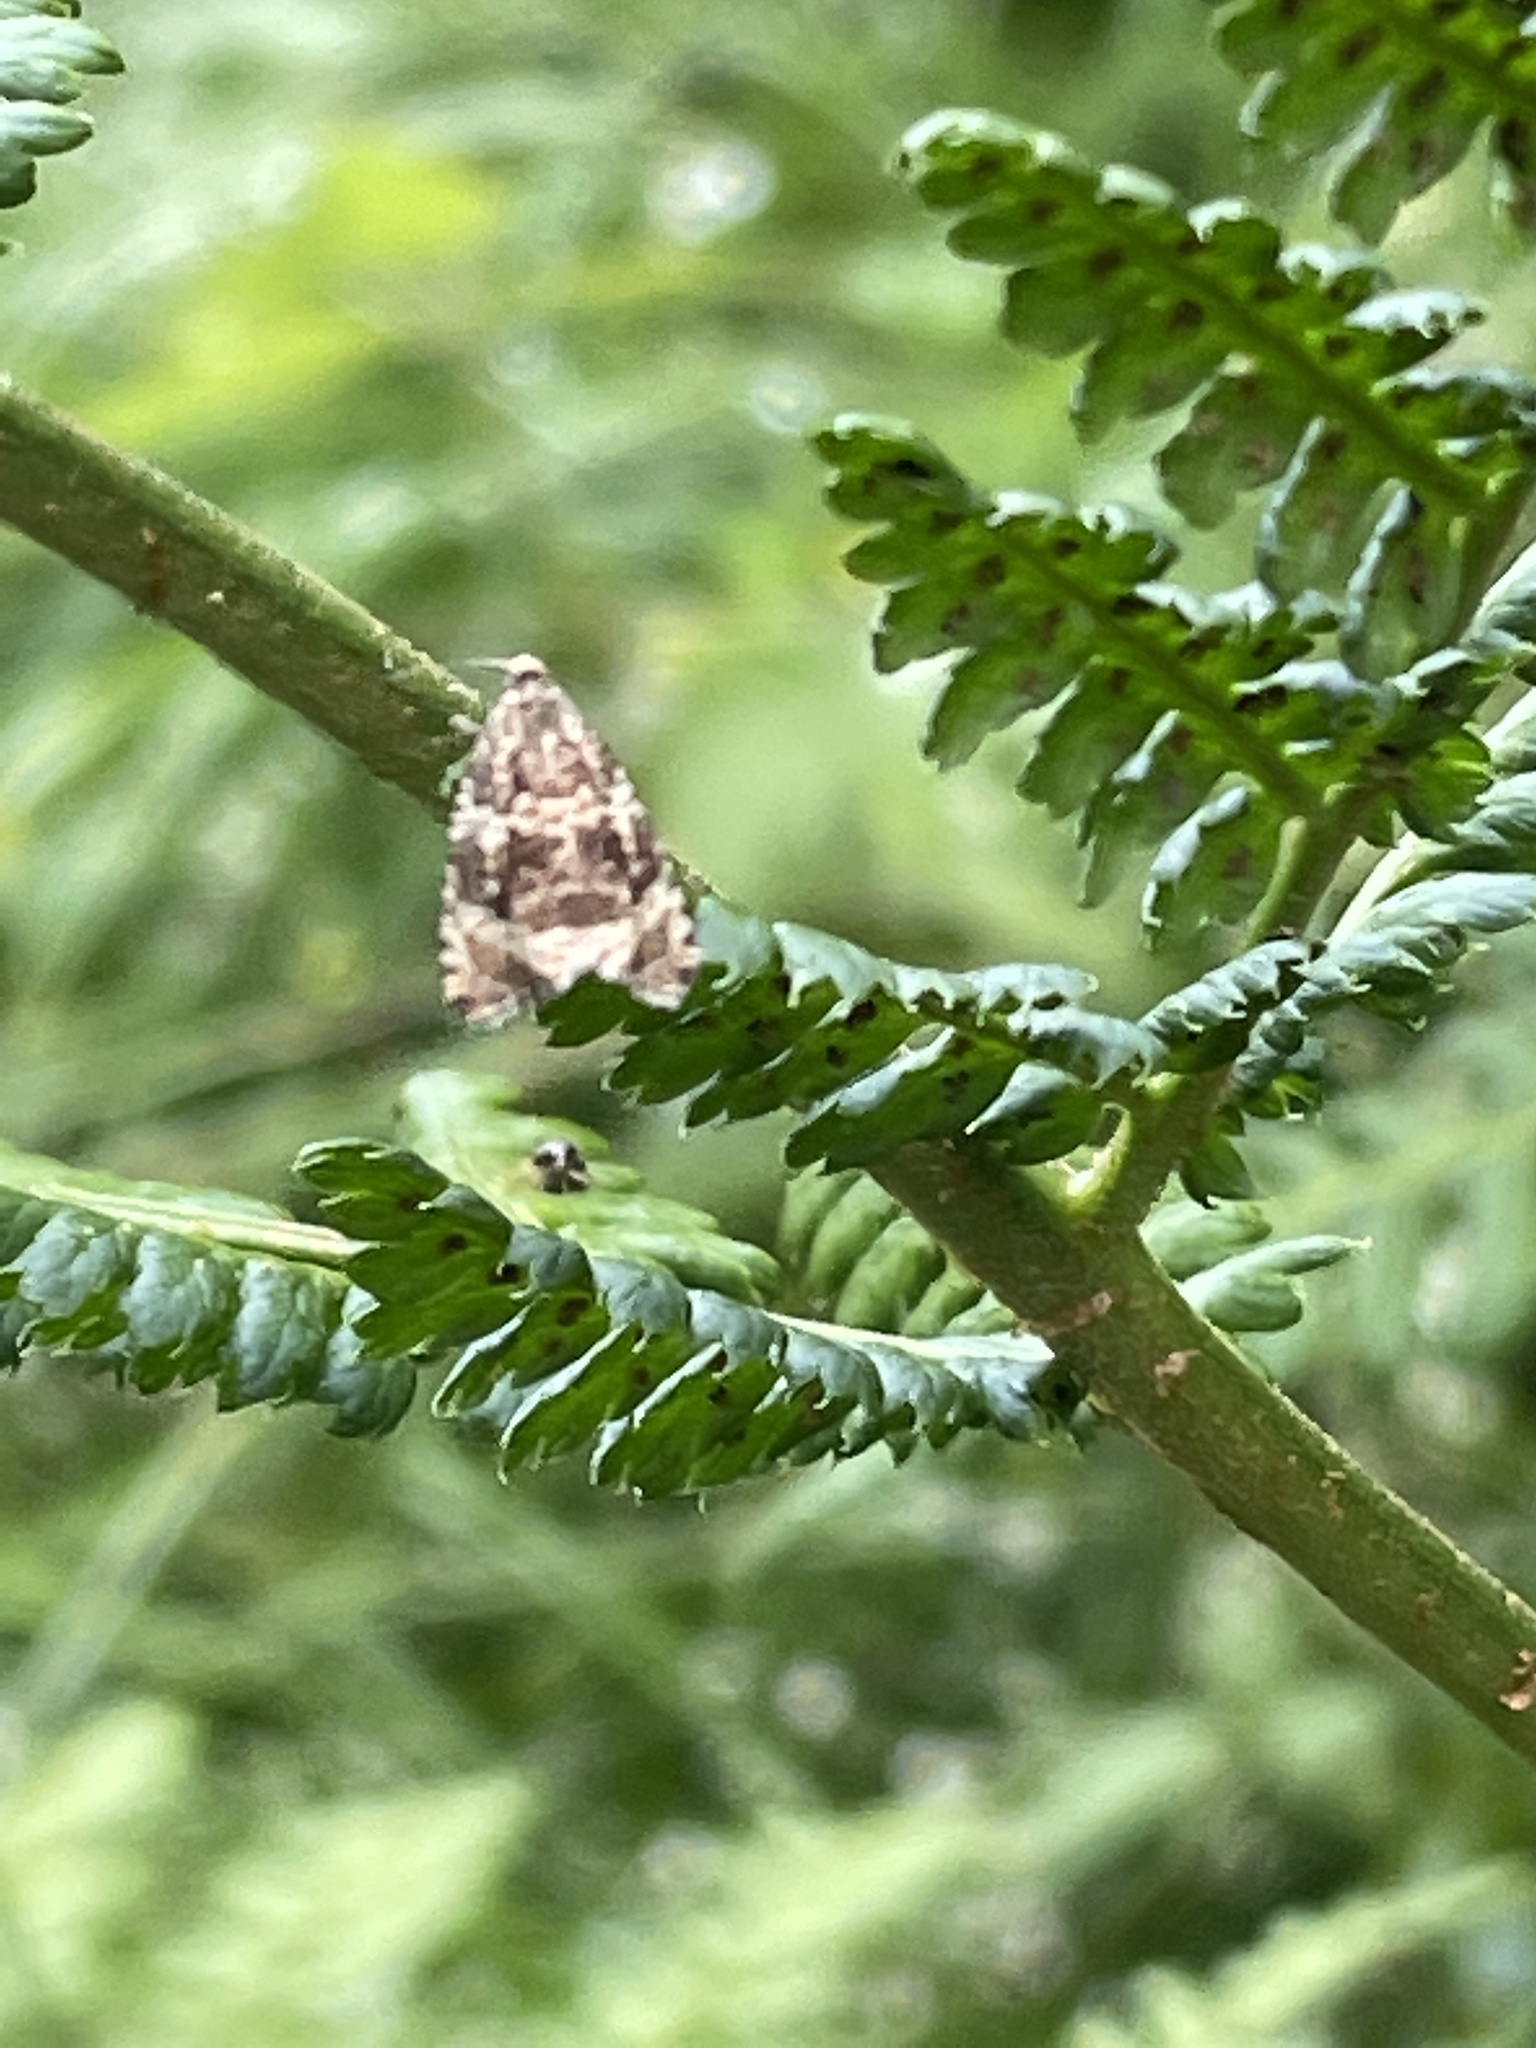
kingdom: Animalia
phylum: Arthropoda
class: Insecta
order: Lepidoptera
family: Tortricidae
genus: Syricoris
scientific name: Syricoris lacunana
